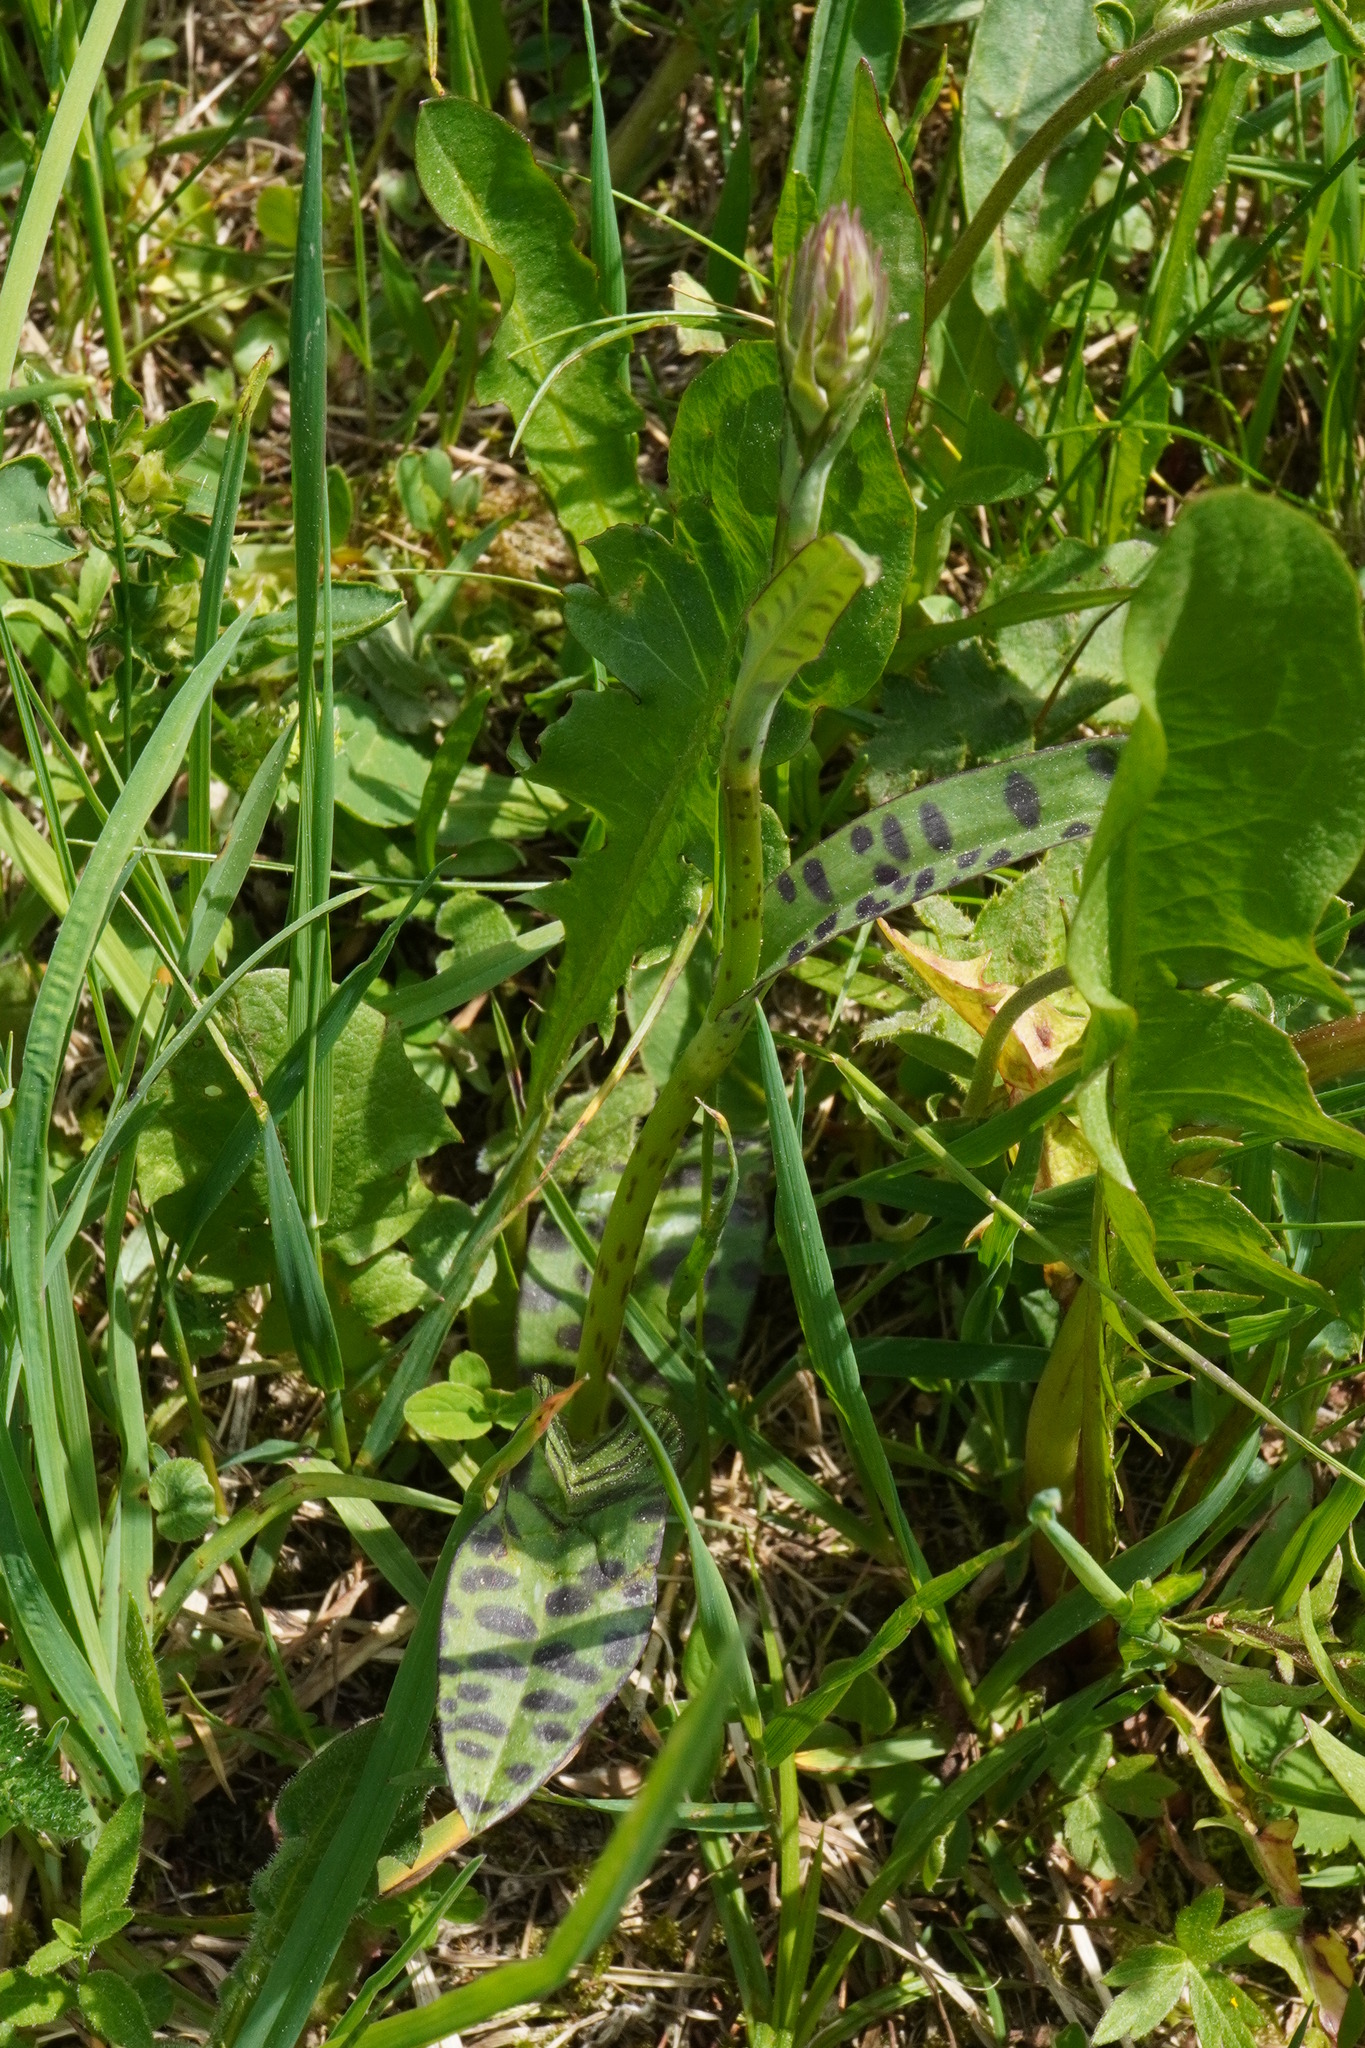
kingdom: Plantae
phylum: Tracheophyta
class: Liliopsida
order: Asparagales
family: Orchidaceae
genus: Dactylorhiza
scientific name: Dactylorhiza maculata
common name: Heath spotted-orchid
